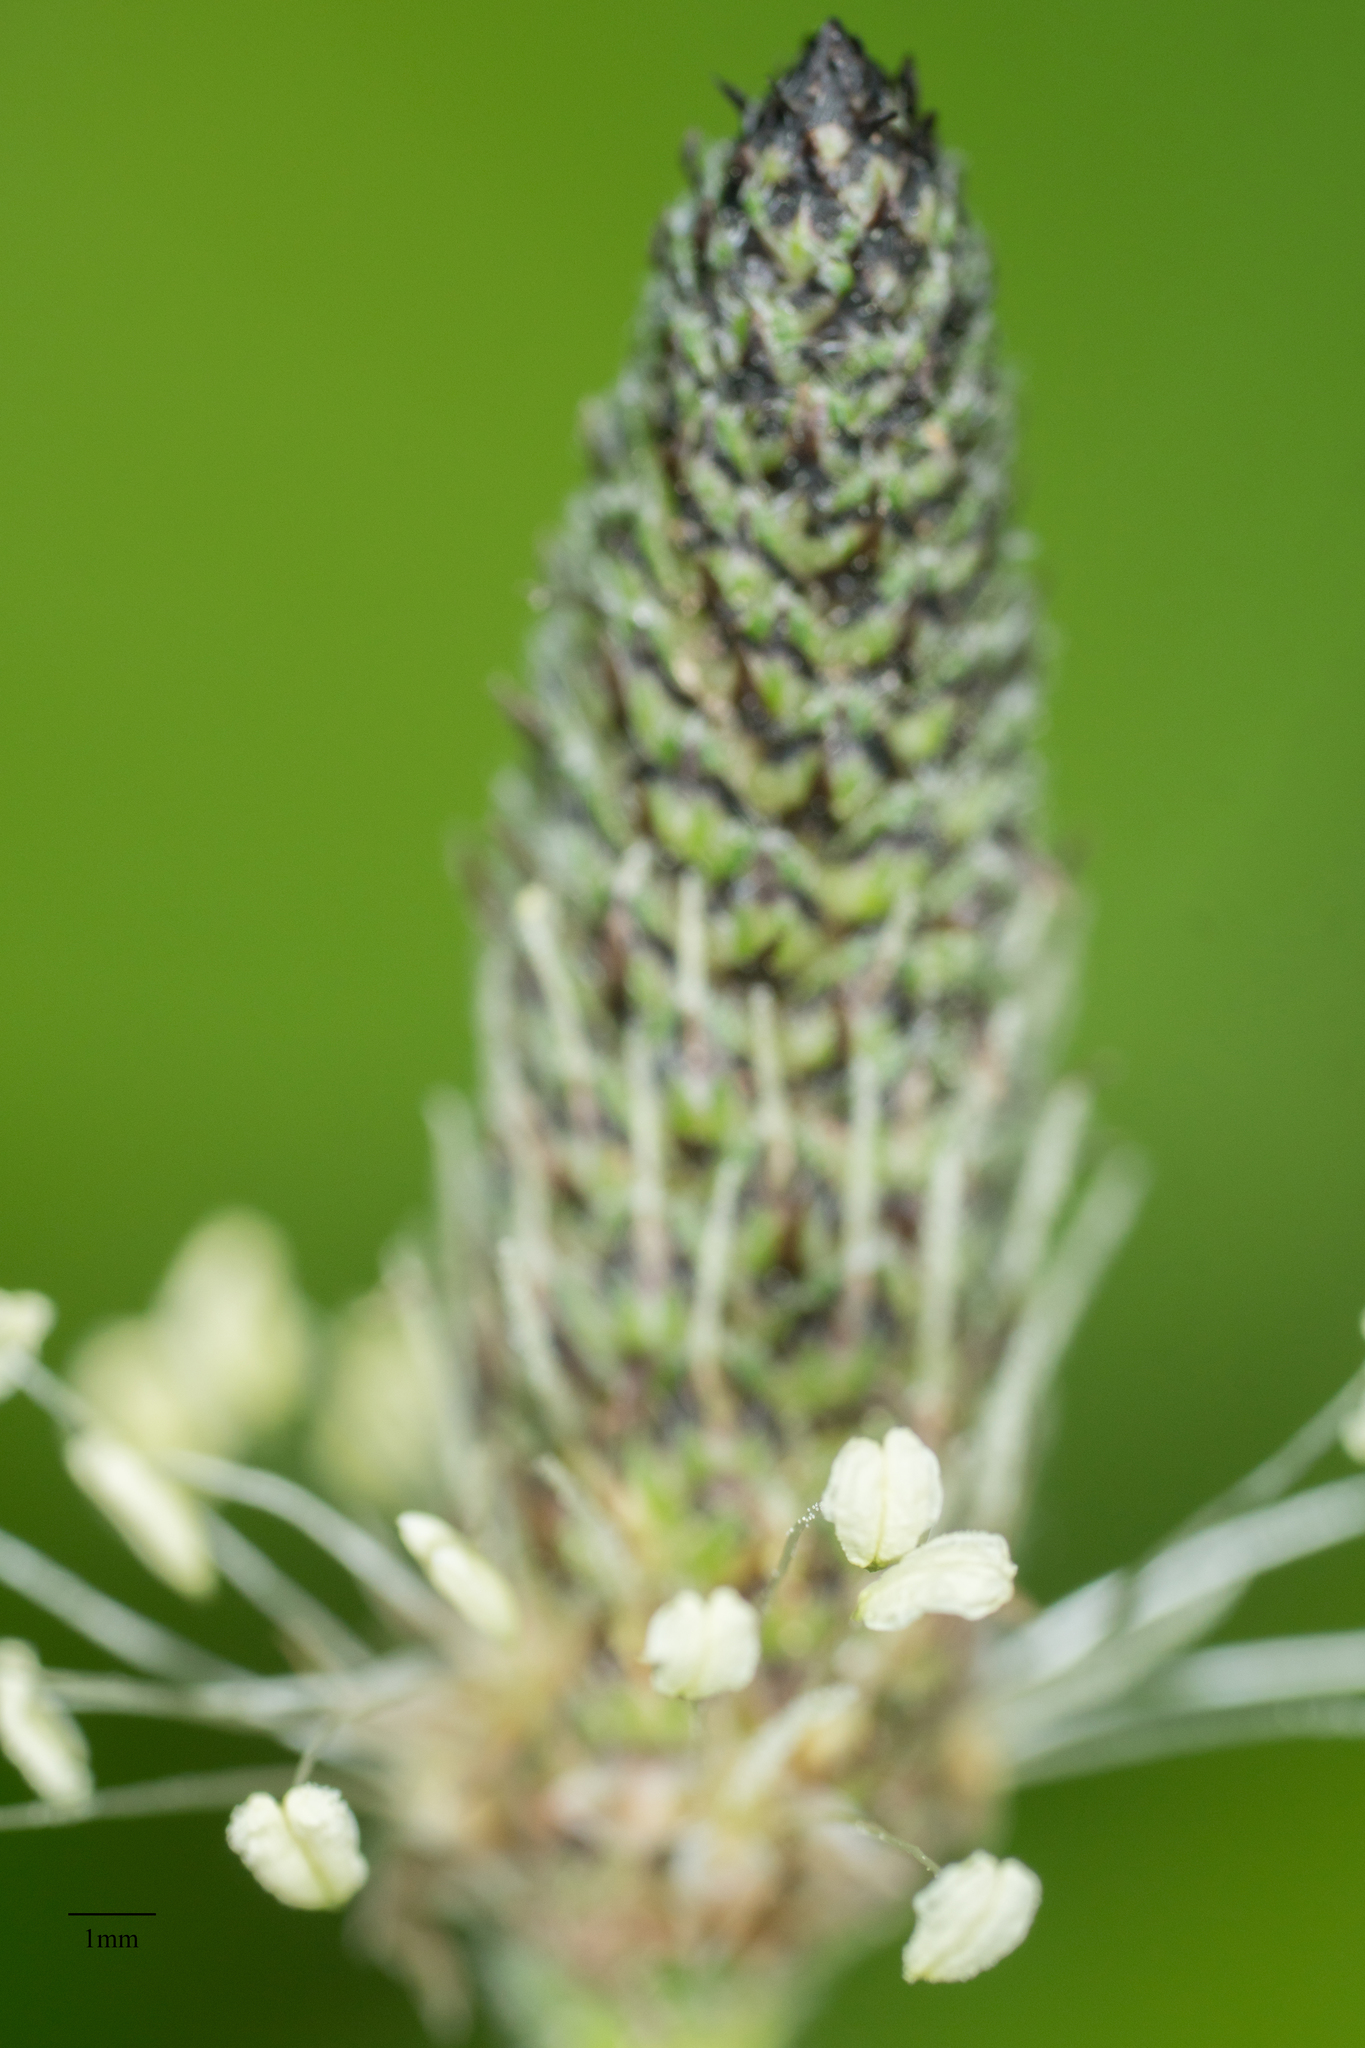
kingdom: Plantae
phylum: Tracheophyta
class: Magnoliopsida
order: Lamiales
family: Plantaginaceae
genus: Plantago
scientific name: Plantago lanceolata
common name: Ribwort plantain
